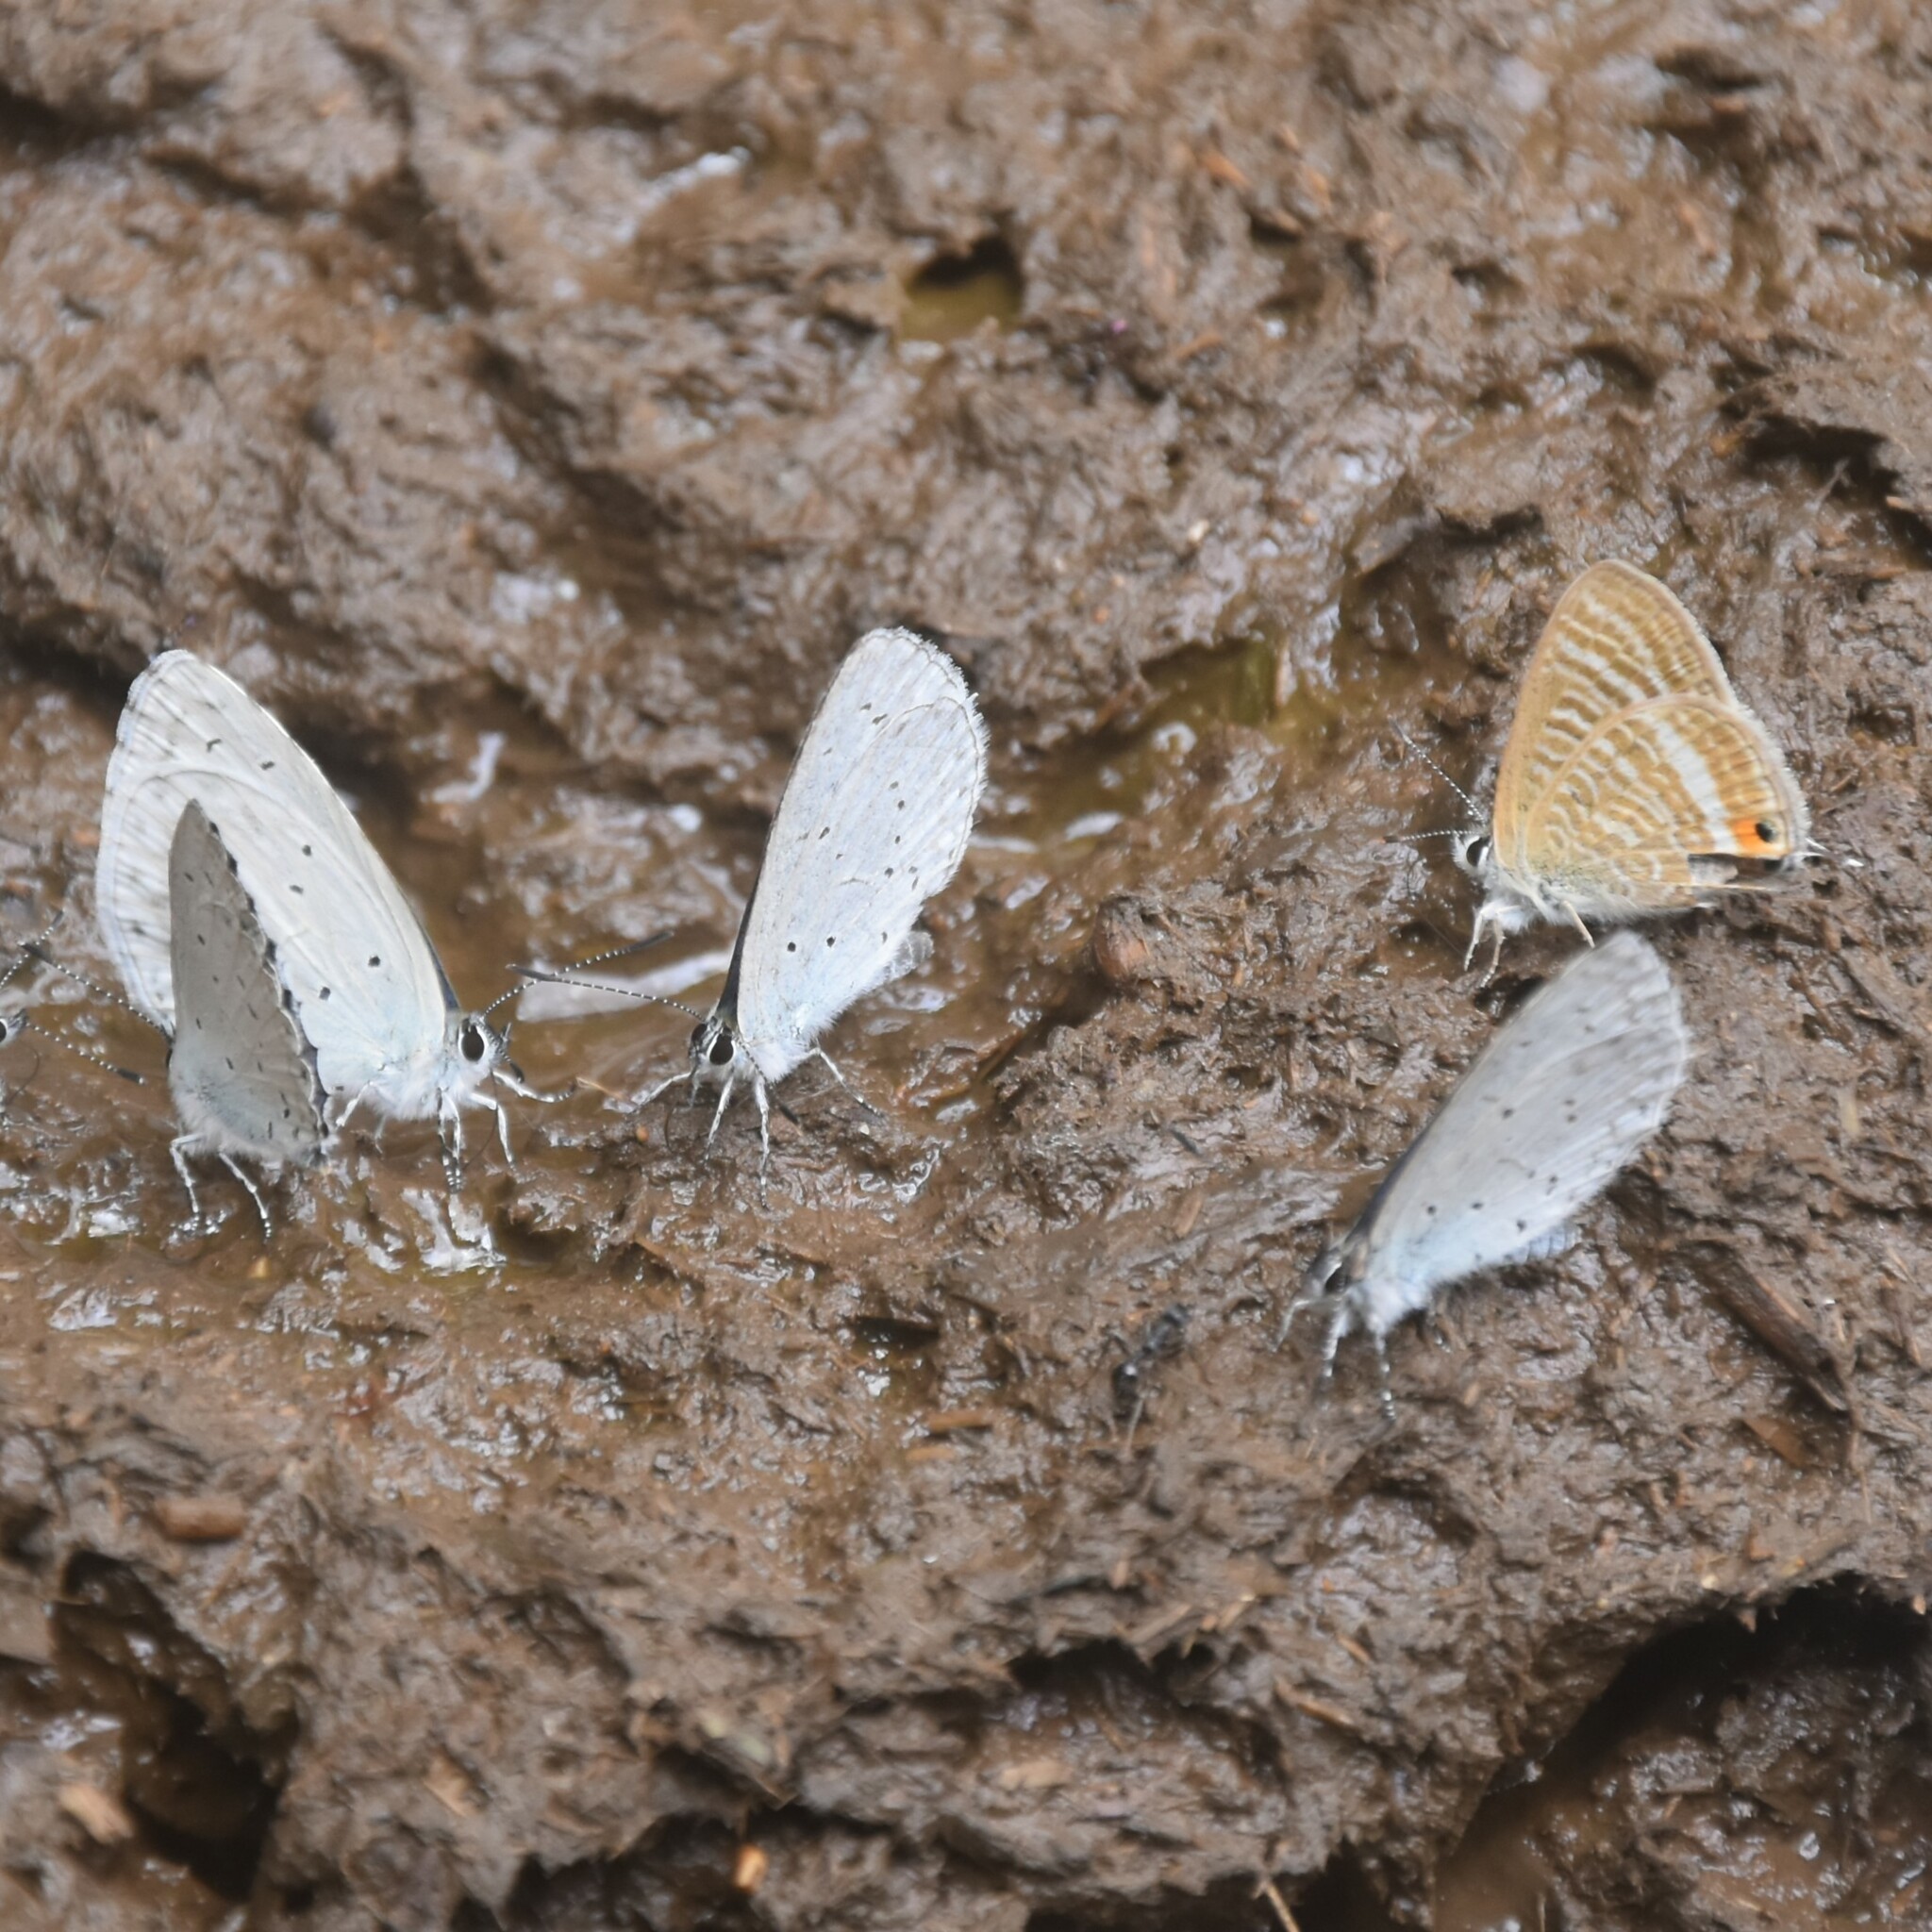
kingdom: Animalia
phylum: Arthropoda
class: Insecta
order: Lepidoptera
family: Lycaenidae
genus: Lampides
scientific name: Lampides boeticus
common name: Long-tailed blue
